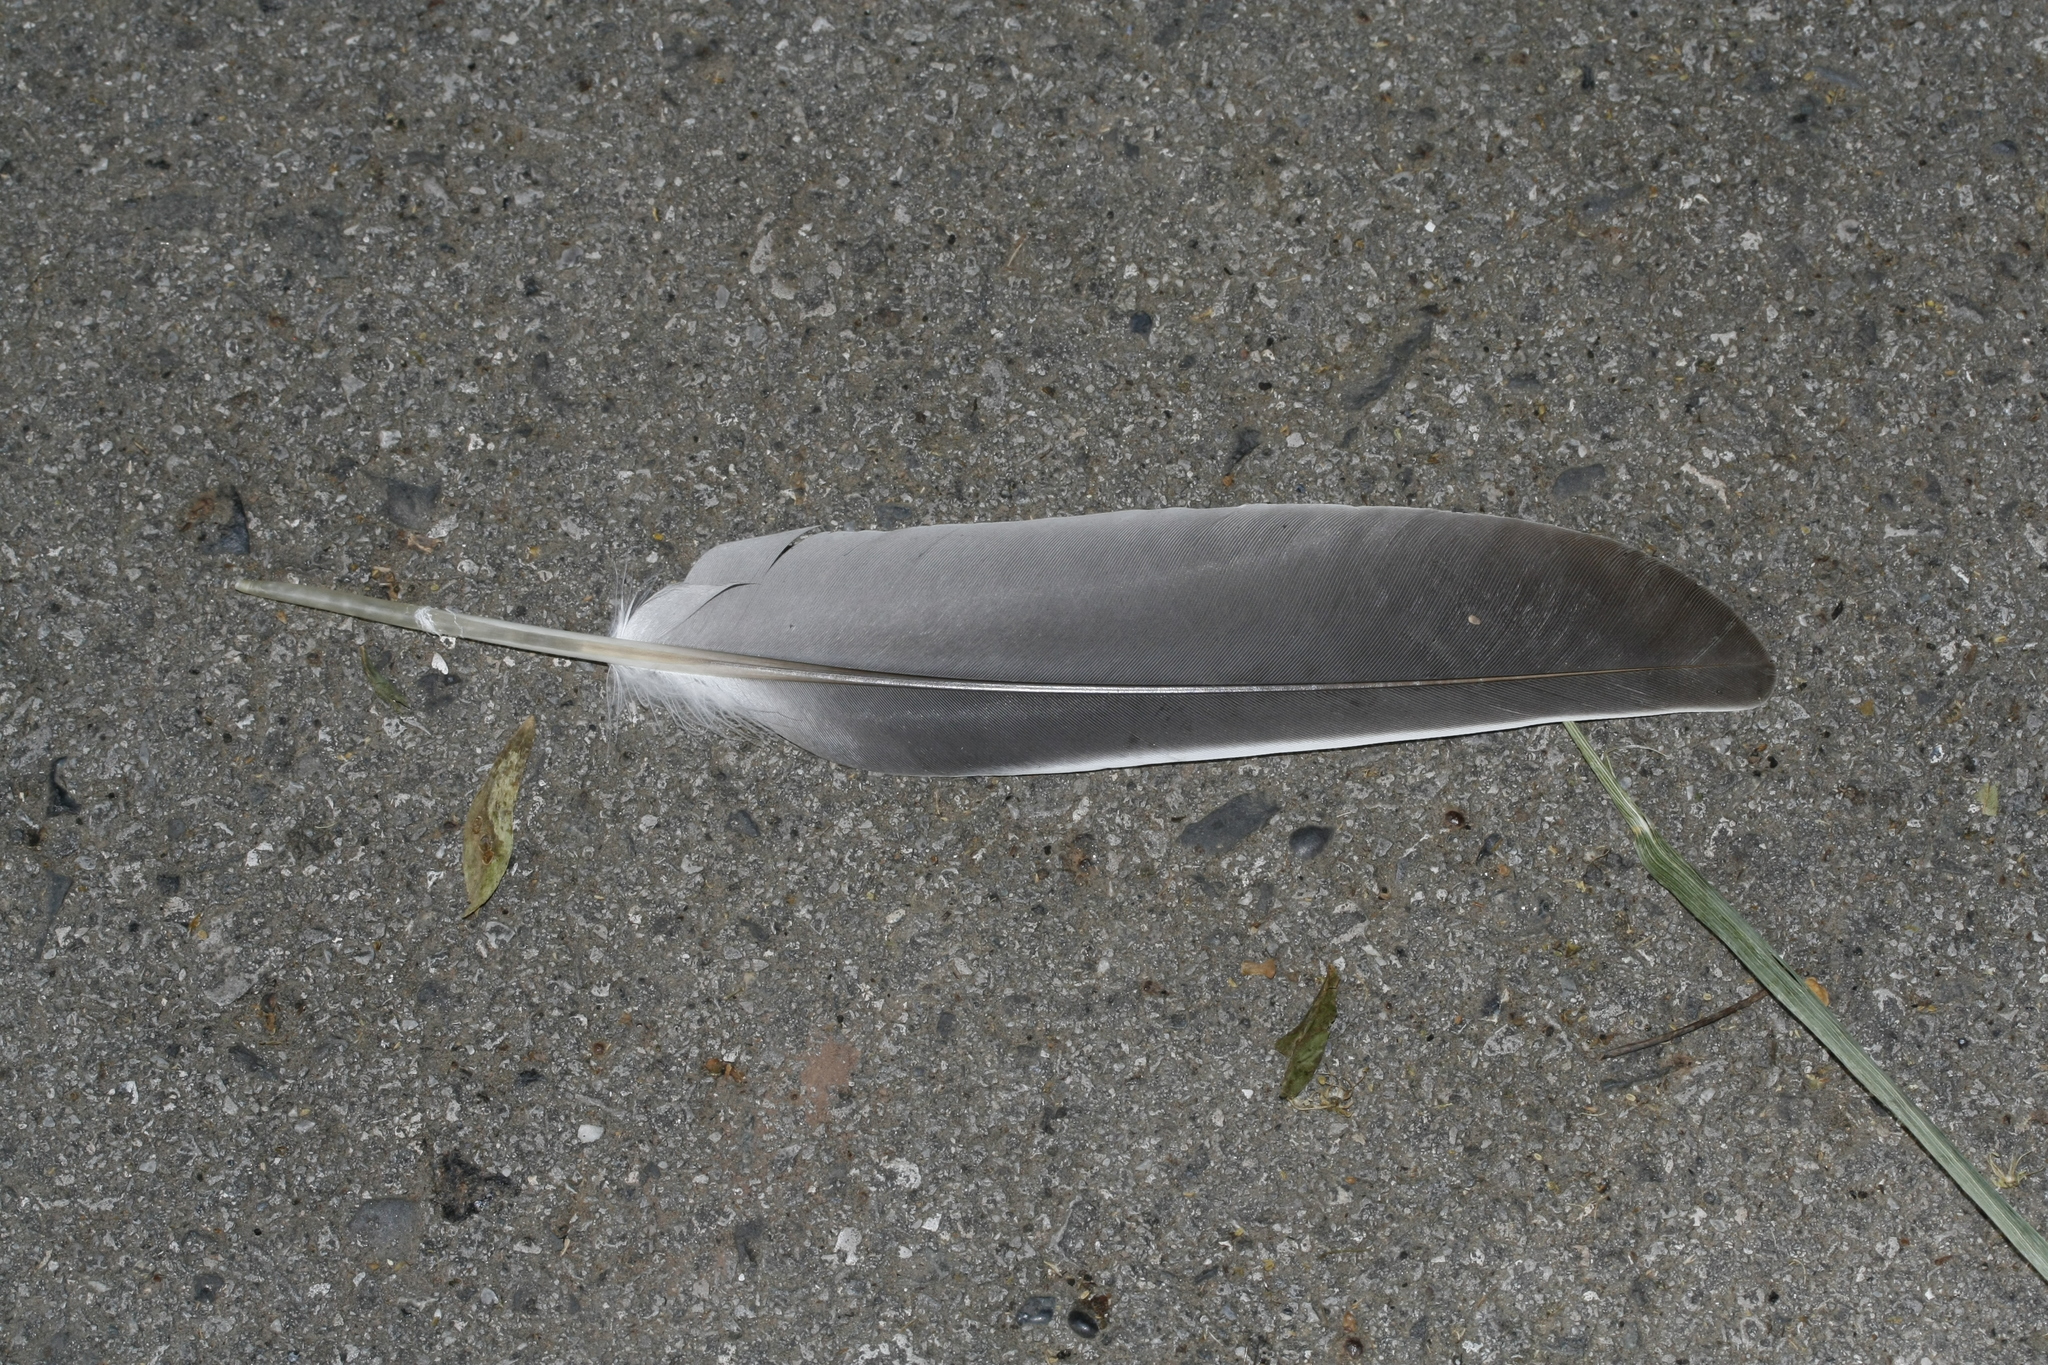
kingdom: Animalia
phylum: Chordata
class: Aves
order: Columbiformes
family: Columbidae
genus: Columba
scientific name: Columba palumbus
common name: Common wood pigeon
